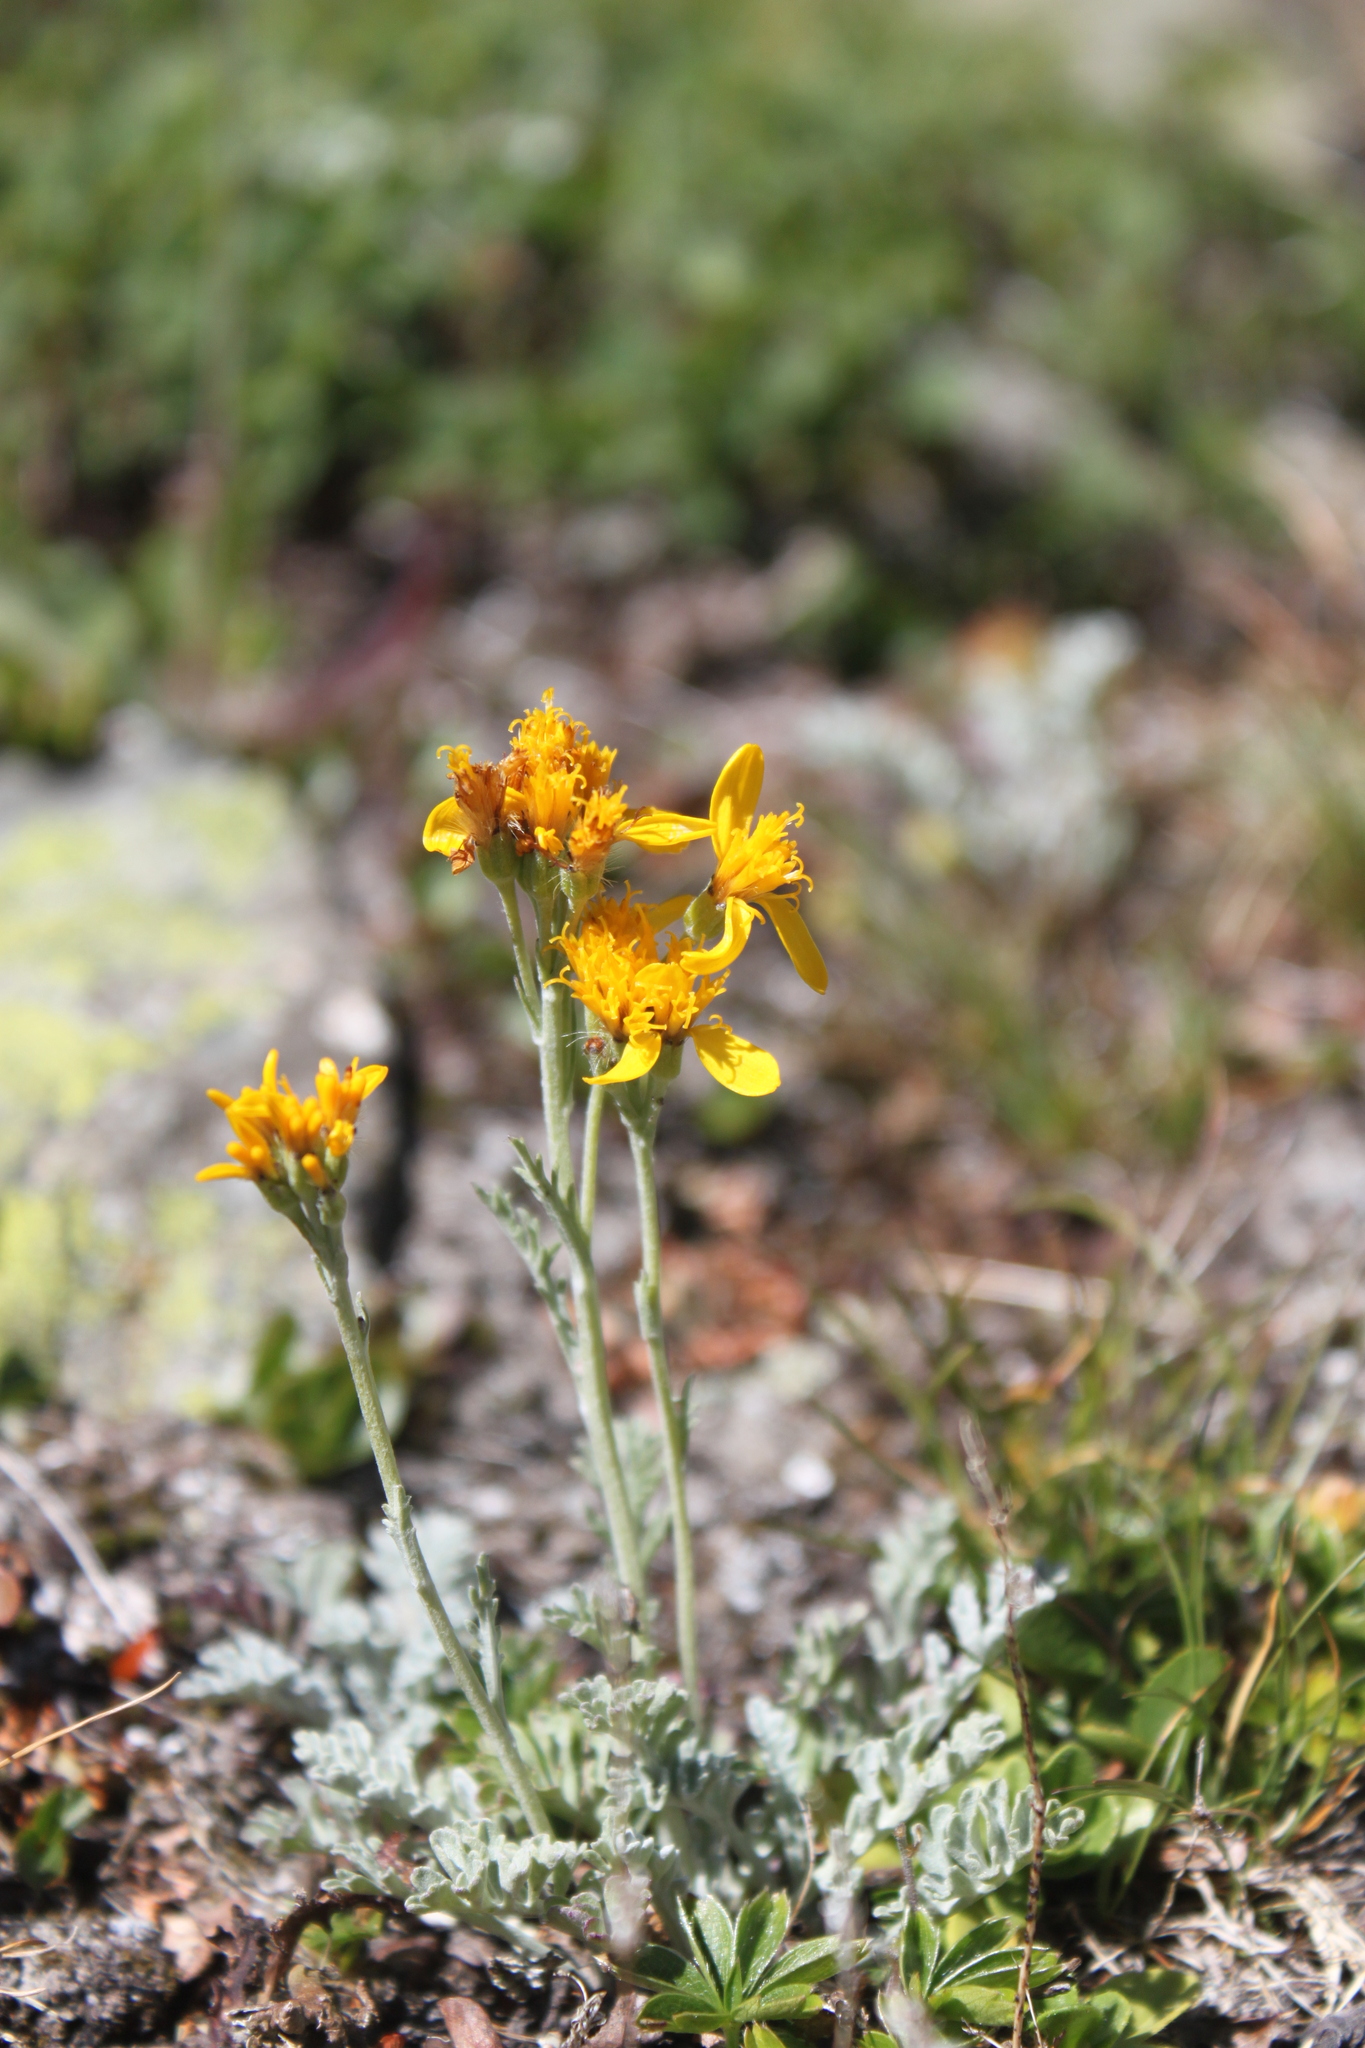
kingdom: Plantae
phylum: Tracheophyta
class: Magnoliopsida
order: Asterales
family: Asteraceae
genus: Jacobaea
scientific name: Jacobaea incana
